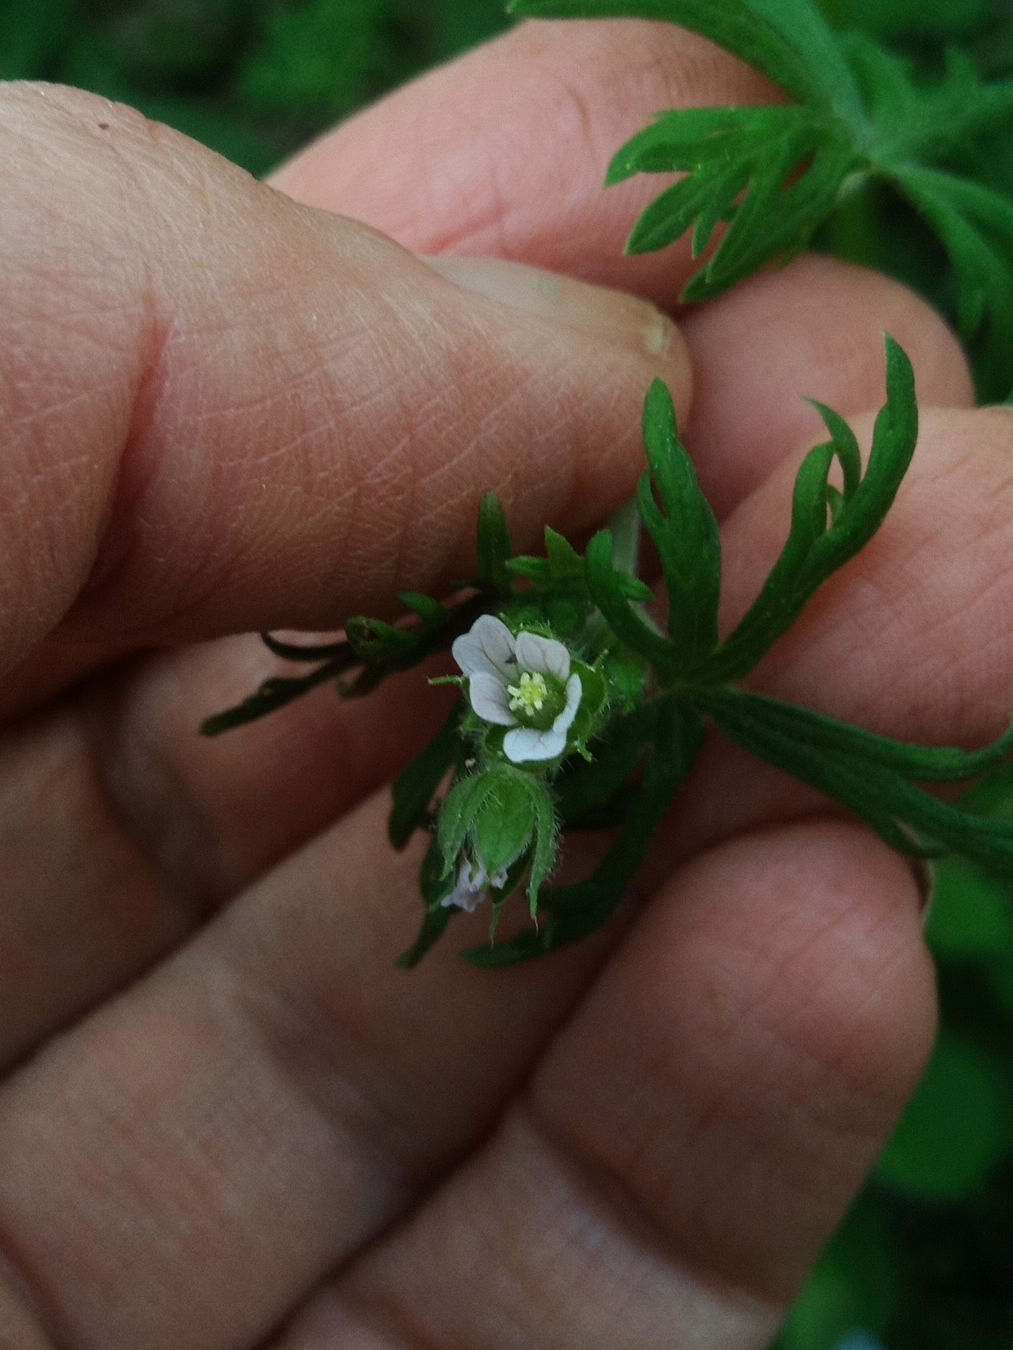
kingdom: Plantae
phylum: Tracheophyta
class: Magnoliopsida
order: Geraniales
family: Geraniaceae
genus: Geranium
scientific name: Geranium carolinianum
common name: Carolina crane's-bill
